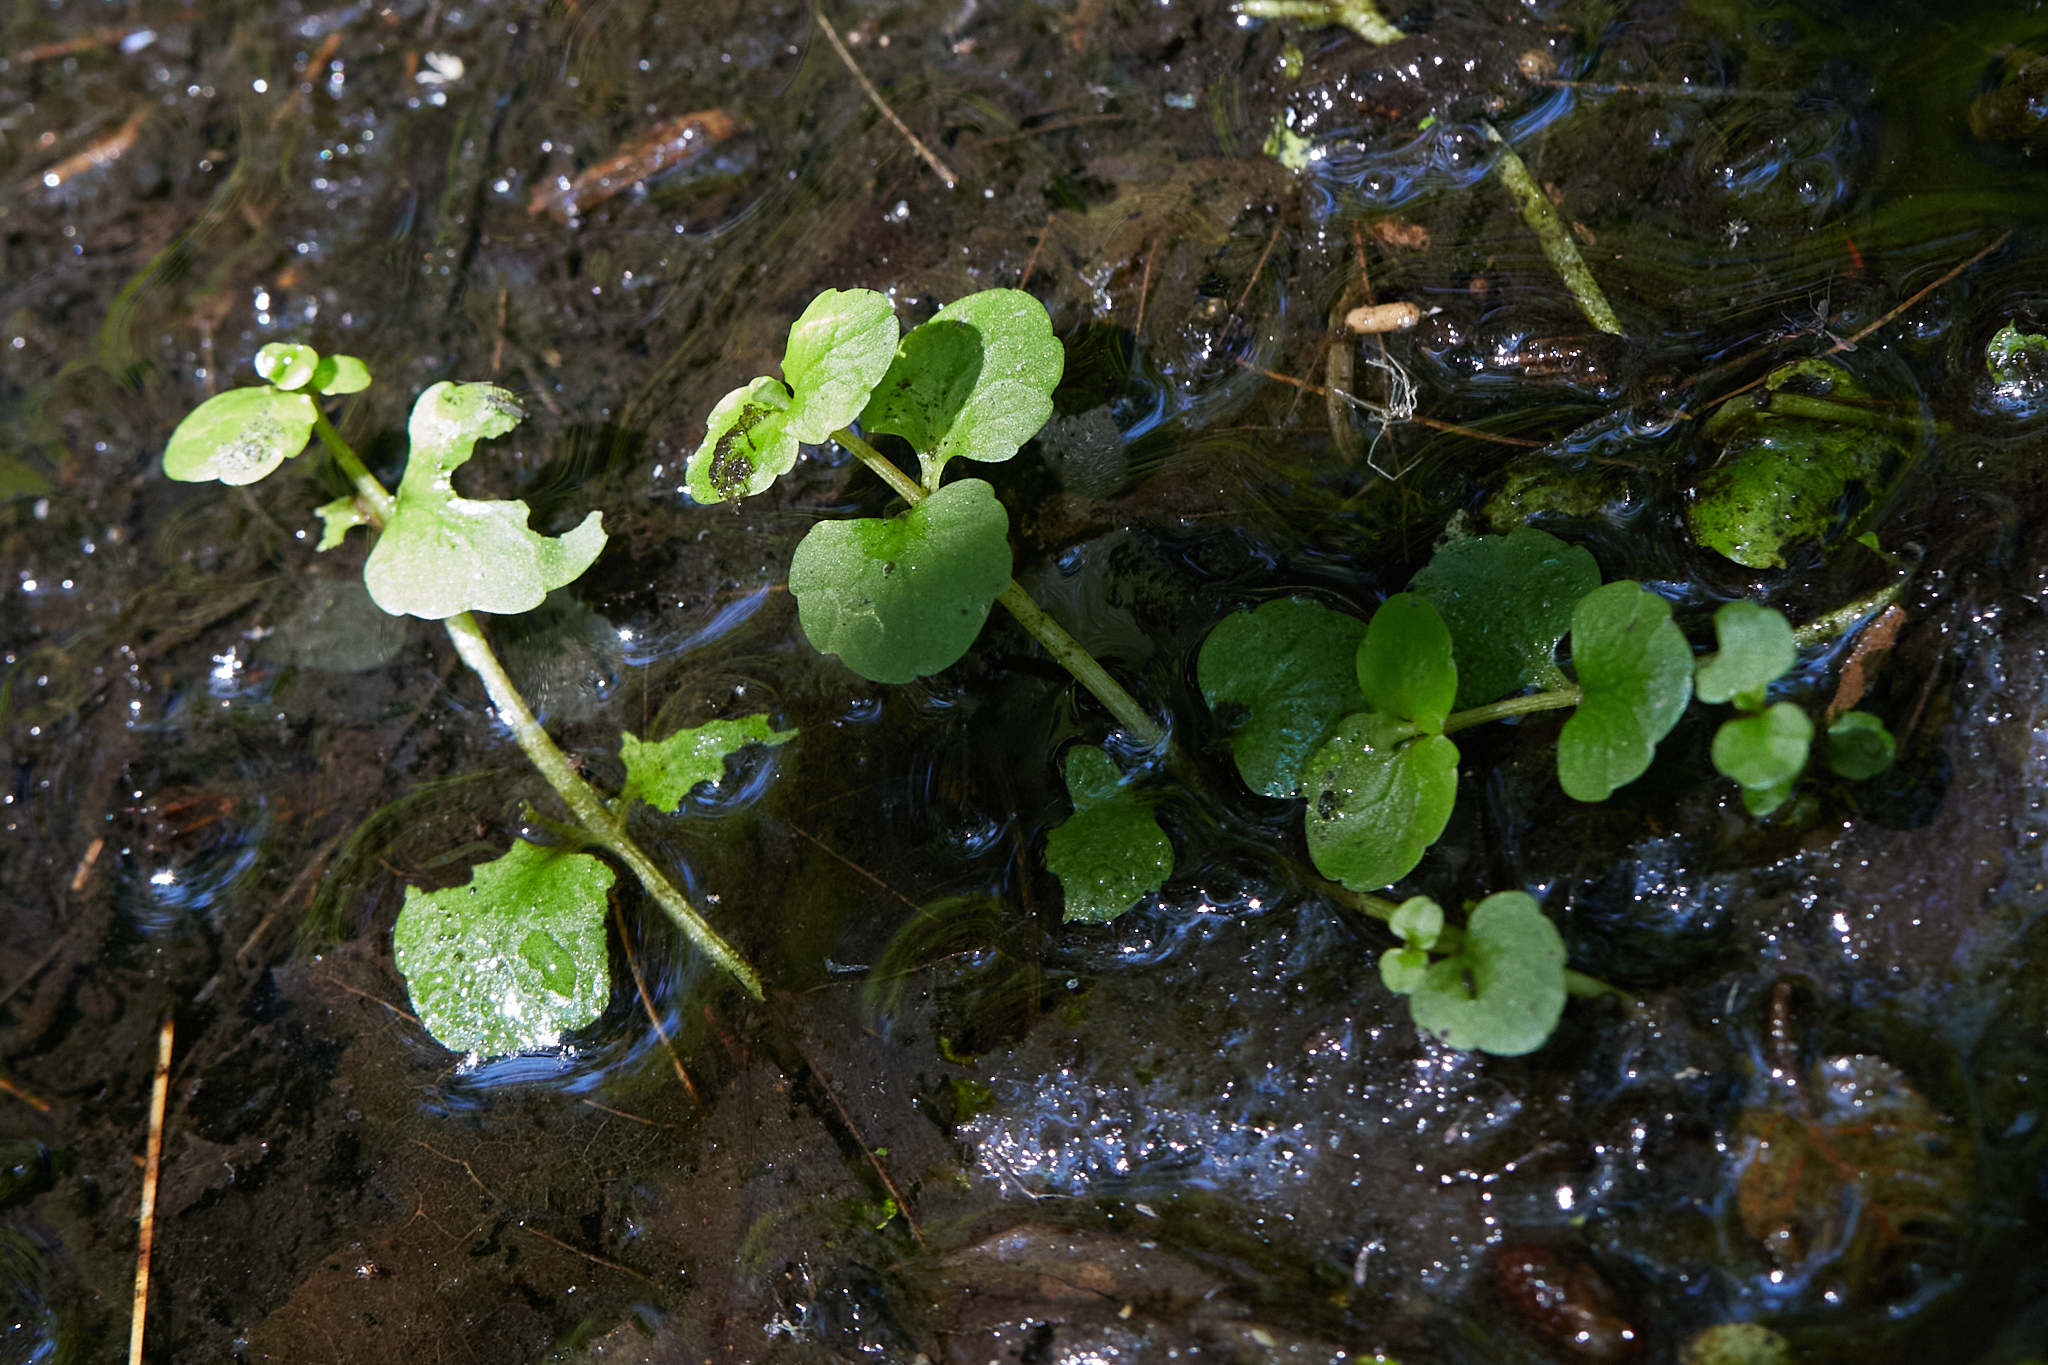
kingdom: Plantae
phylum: Tracheophyta
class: Magnoliopsida
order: Saxifragales
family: Saxifragaceae
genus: Chrysosplenium
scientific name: Chrysosplenium americanum
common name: American golden-saxifrage
